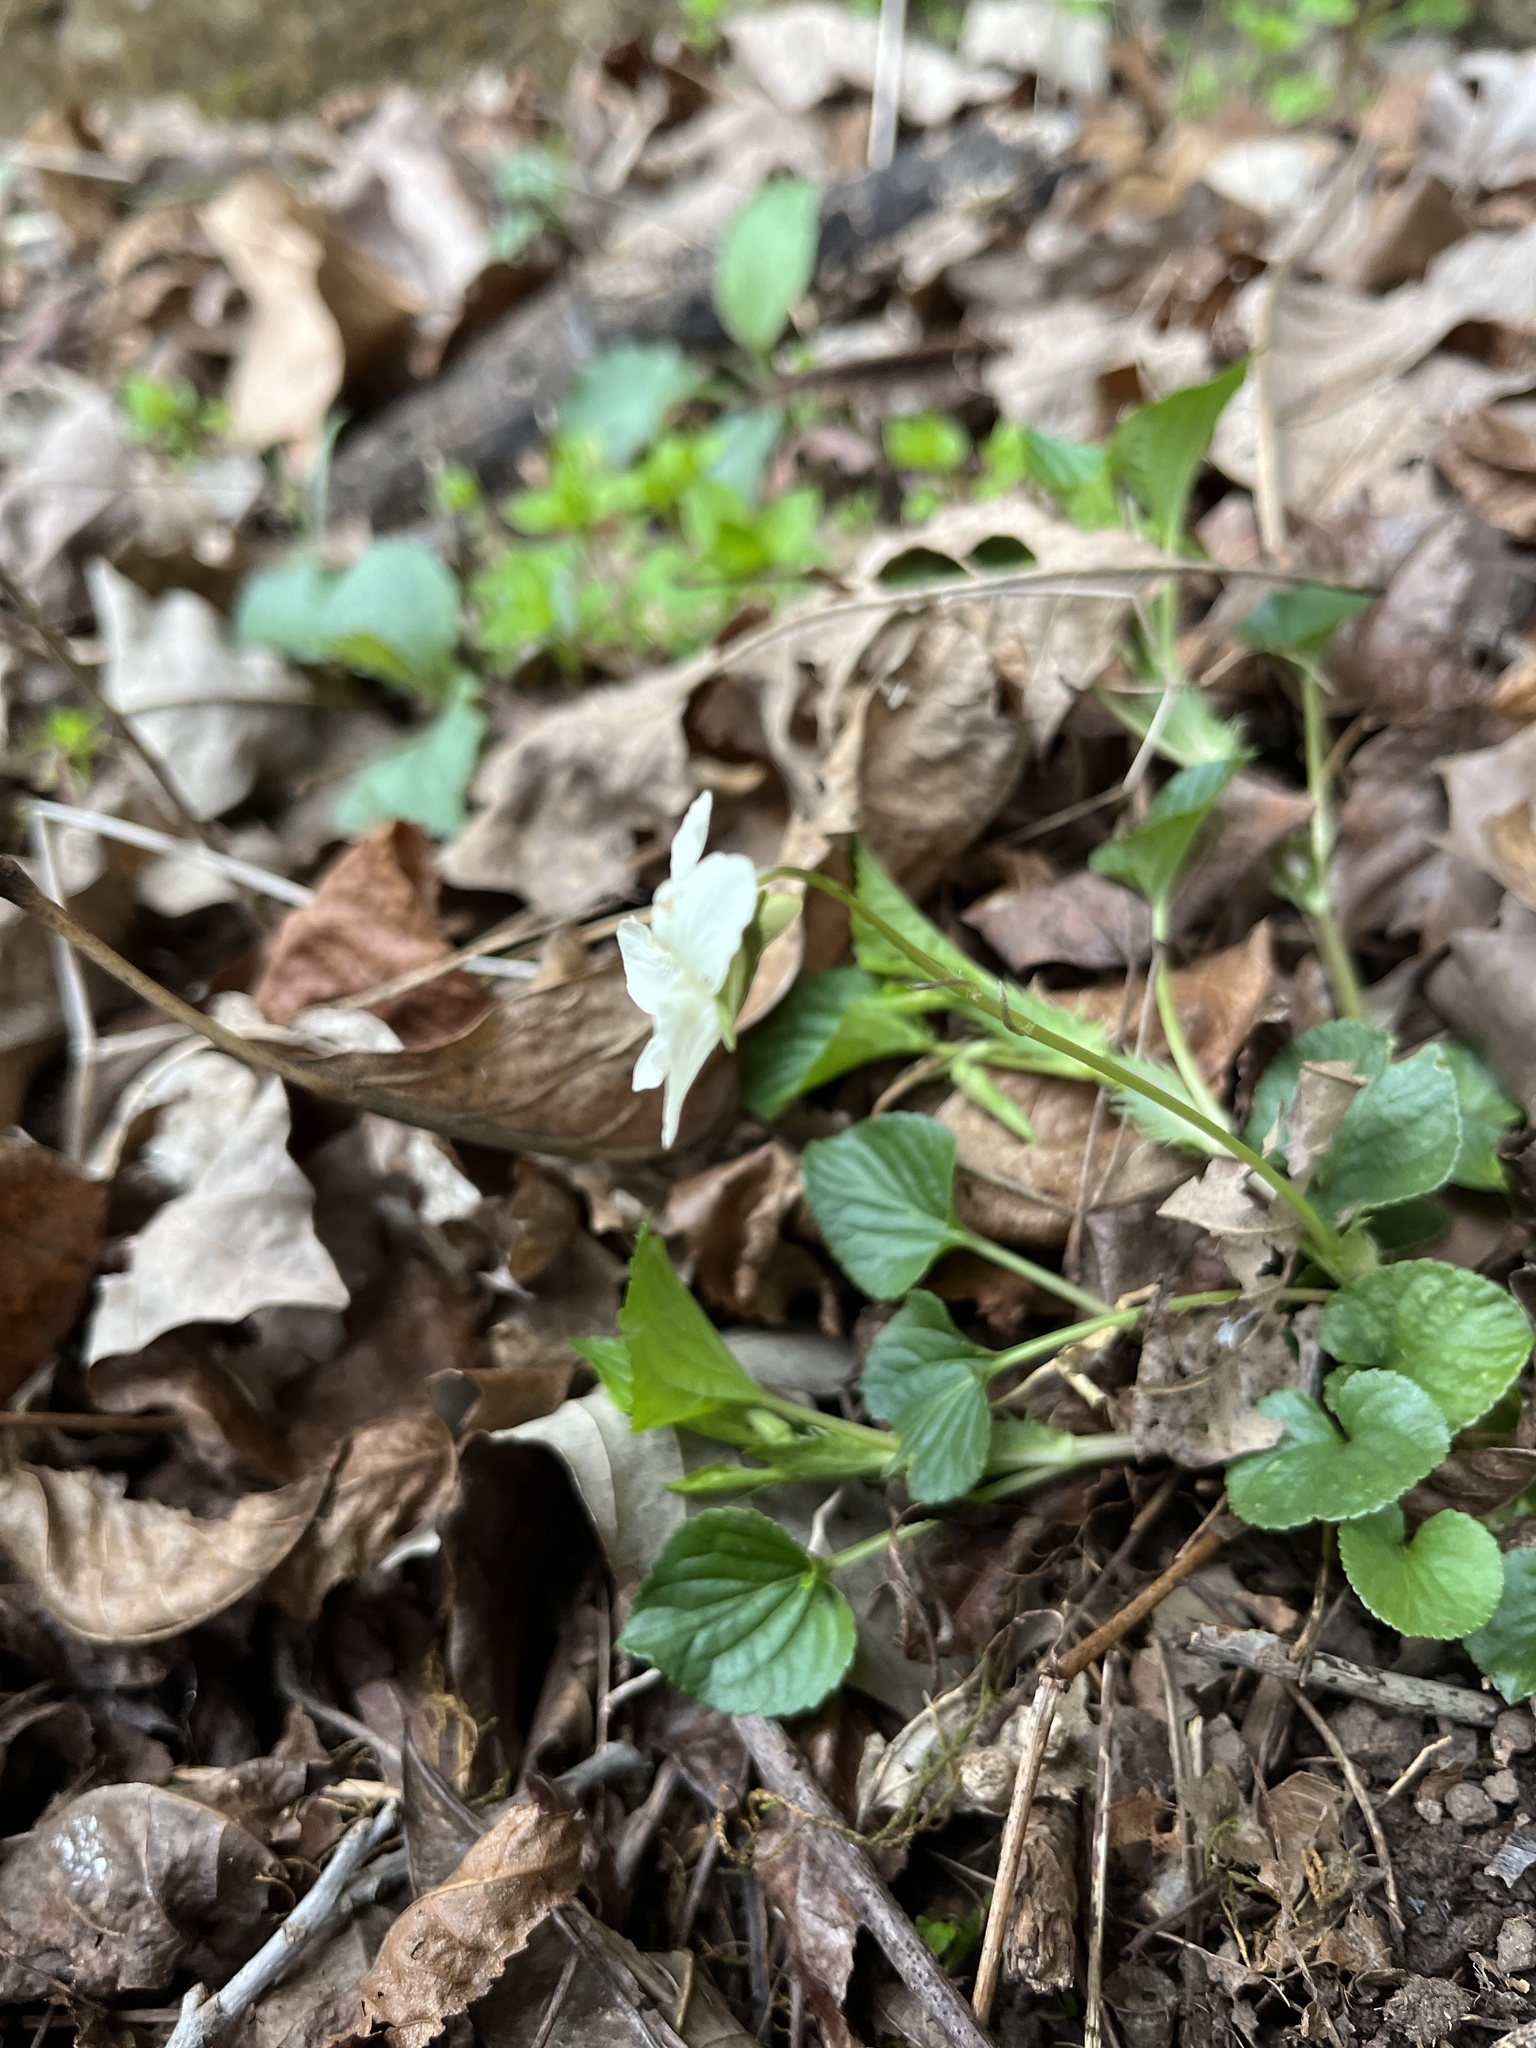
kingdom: Plantae
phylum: Tracheophyta
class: Magnoliopsida
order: Malpighiales
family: Violaceae
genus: Viola
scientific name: Viola striata
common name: Cream violet
